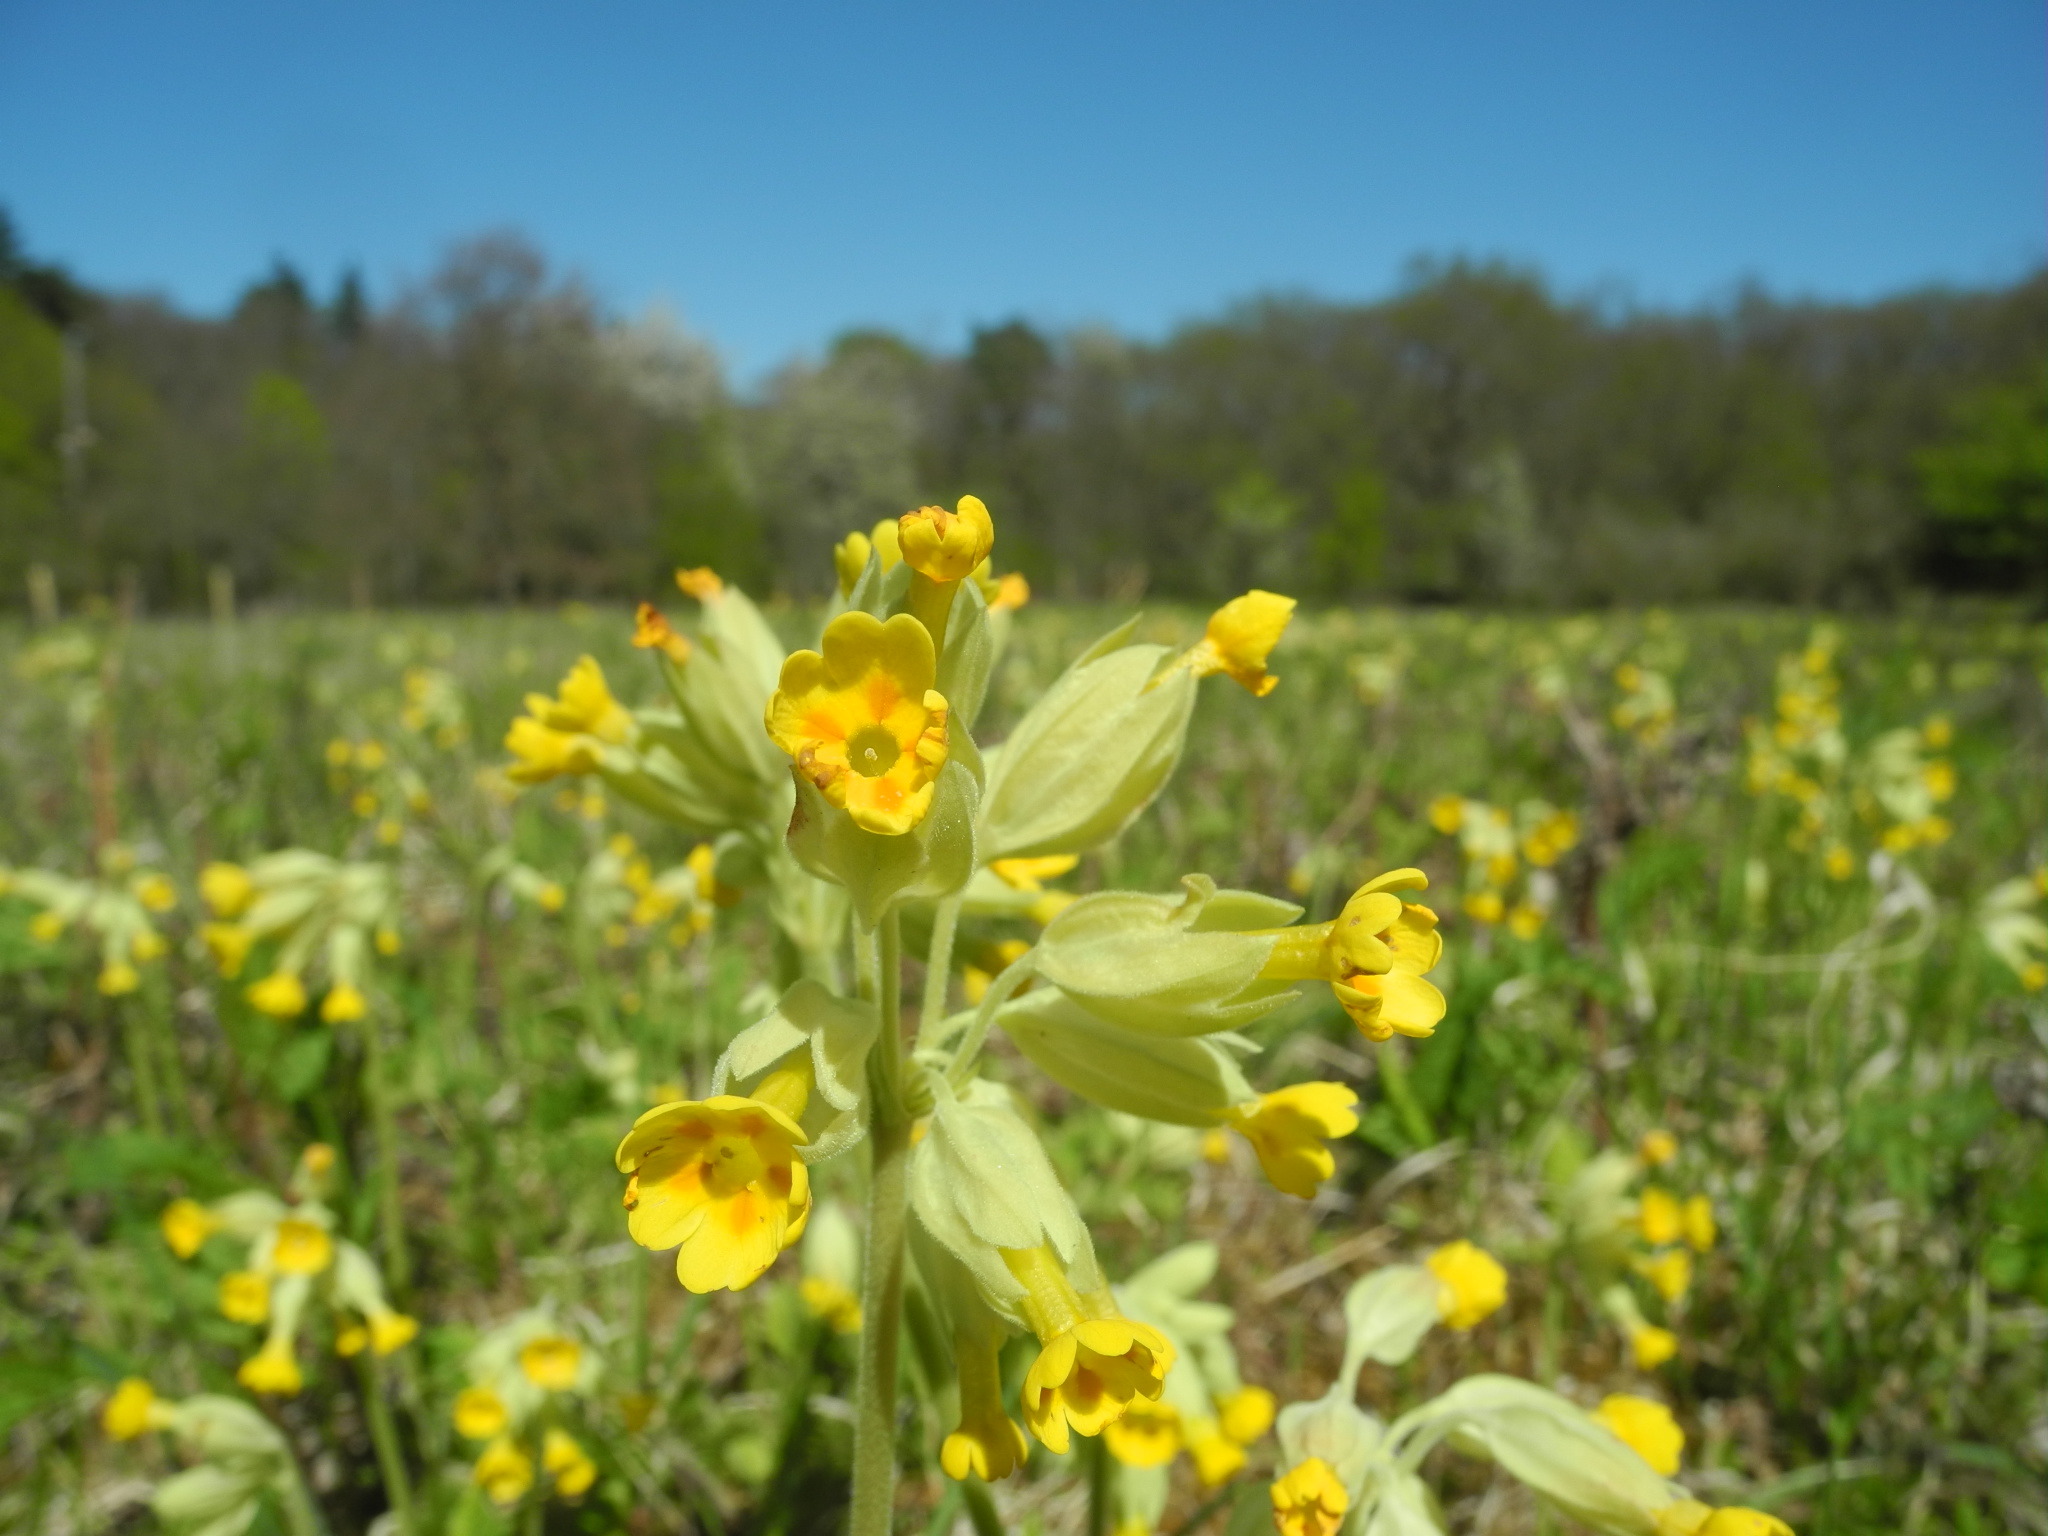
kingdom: Plantae
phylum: Tracheophyta
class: Magnoliopsida
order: Ericales
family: Primulaceae
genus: Primula
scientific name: Primula veris
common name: Cowslip
